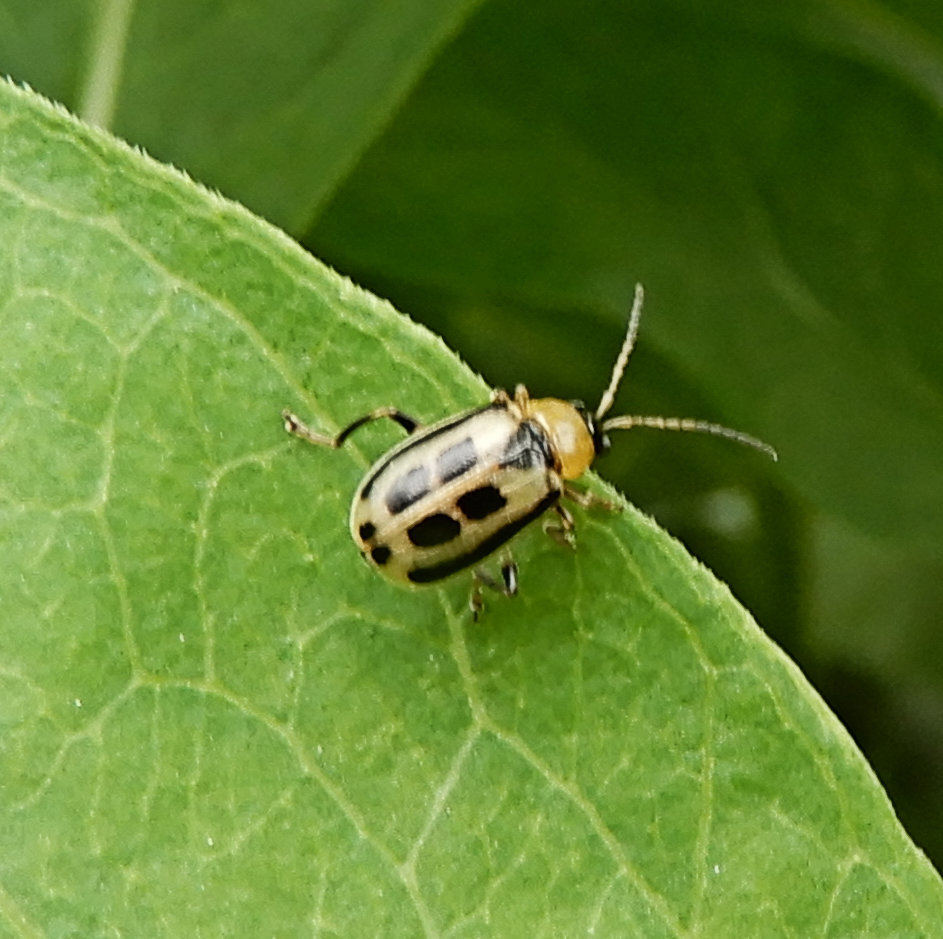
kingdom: Animalia
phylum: Arthropoda
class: Insecta
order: Coleoptera
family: Chrysomelidae
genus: Cerotoma
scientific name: Cerotoma trifurcata
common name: Bean leaf beetle
